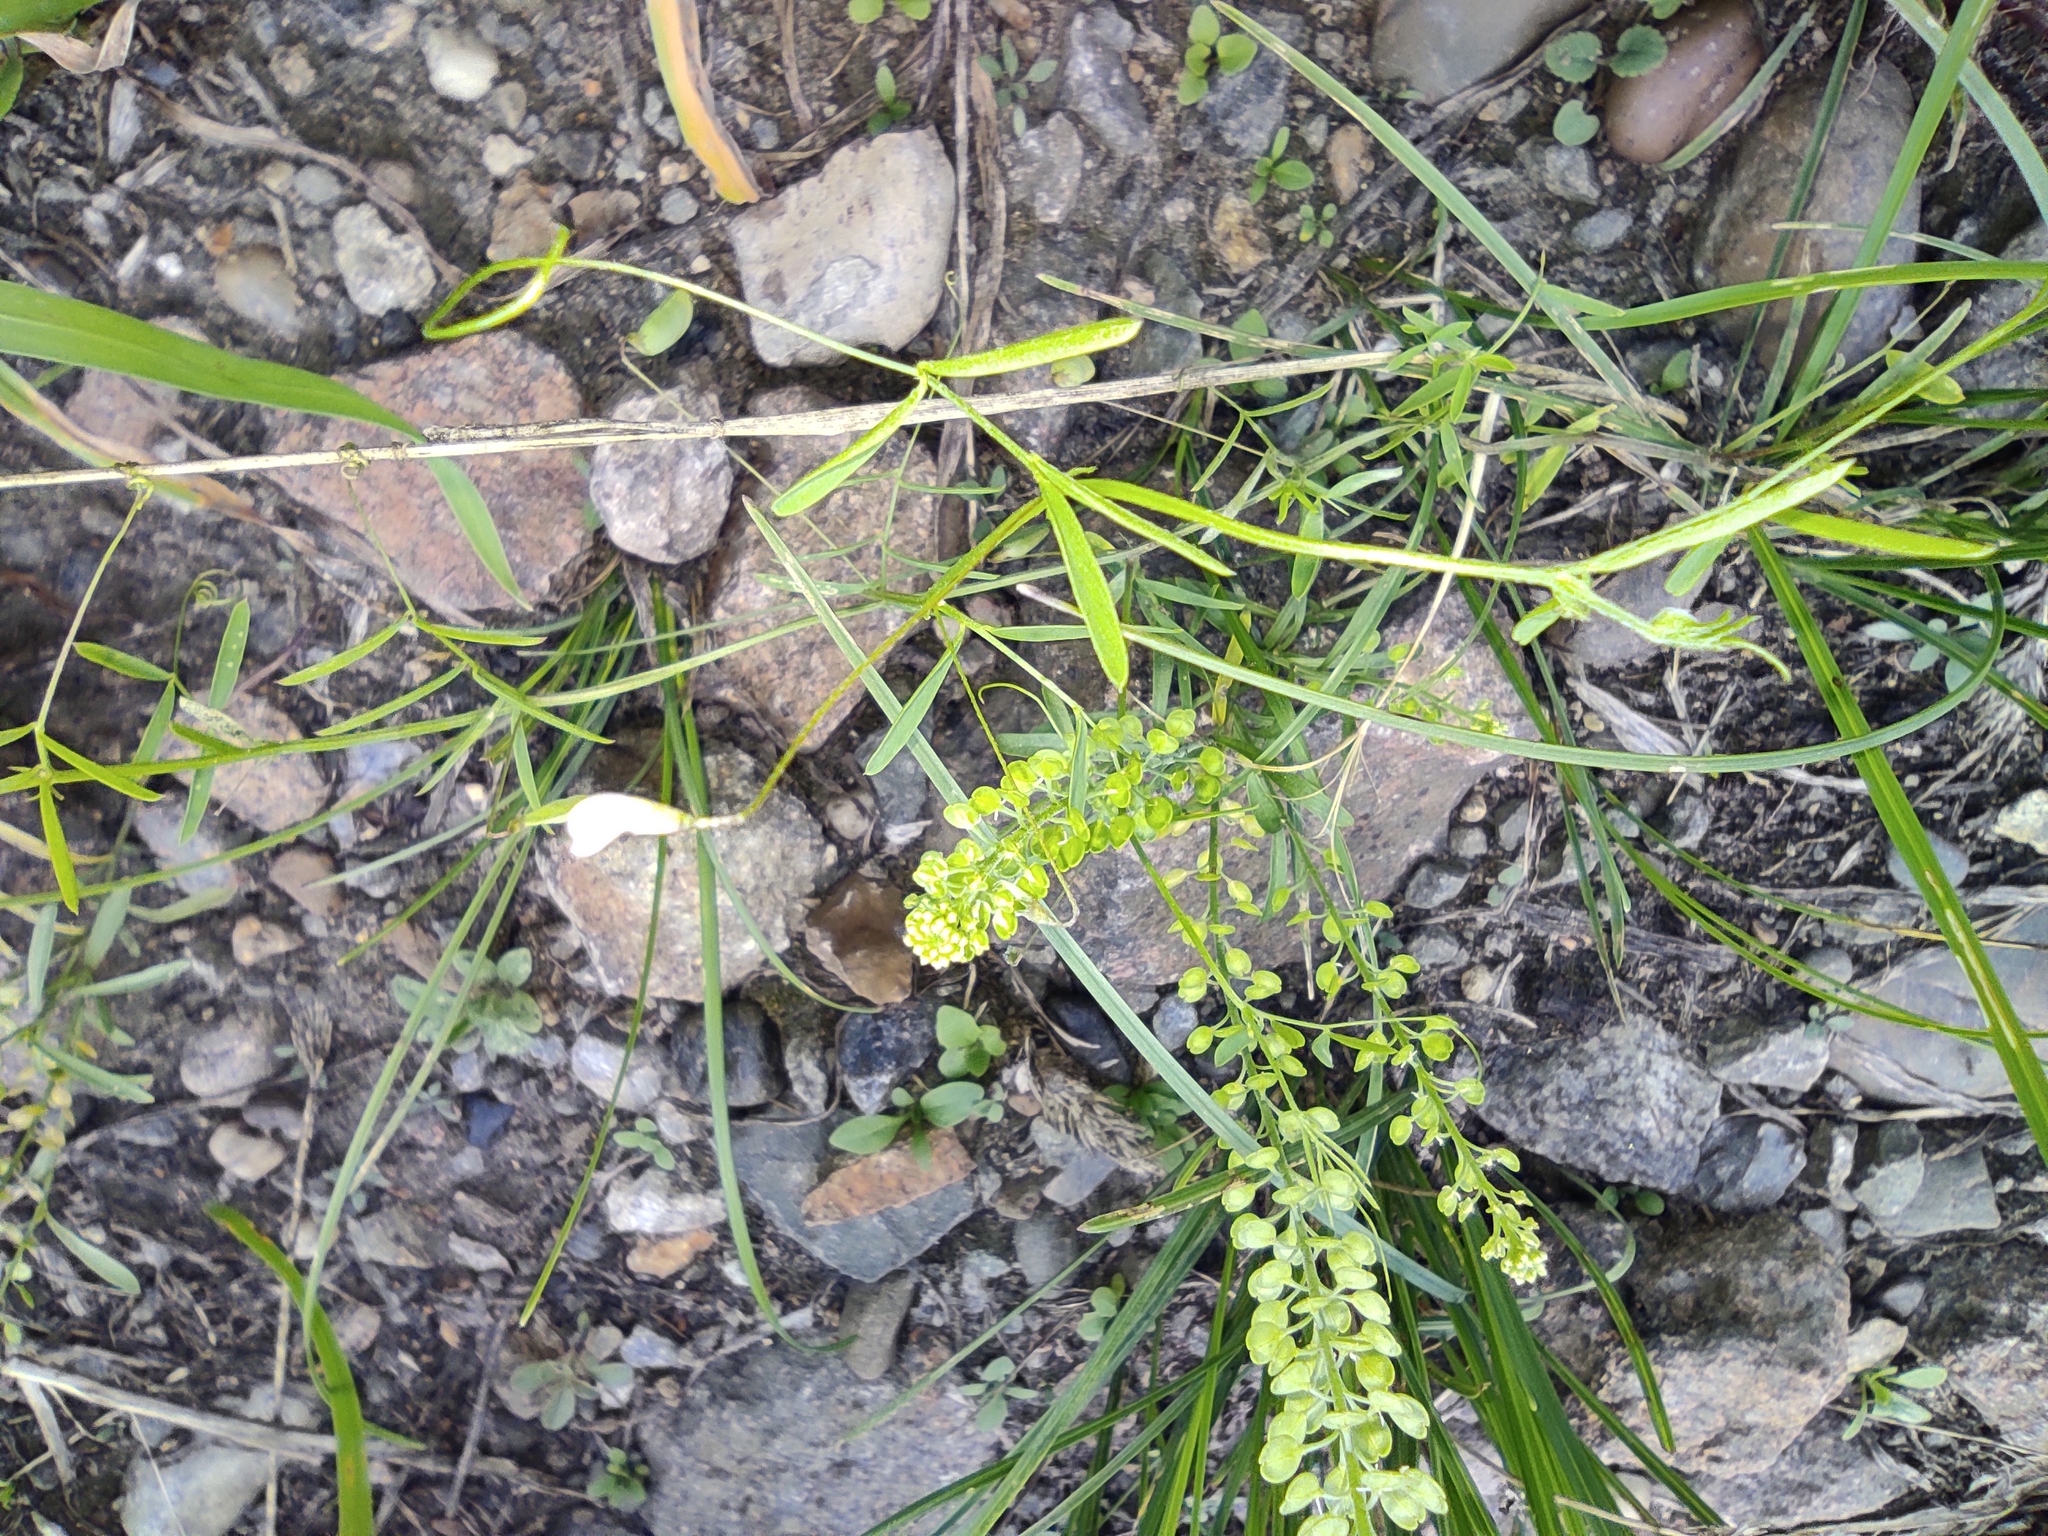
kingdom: Plantae
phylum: Tracheophyta
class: Magnoliopsida
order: Brassicales
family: Brassicaceae
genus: Lepidium
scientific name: Lepidium densiflorum
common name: Miner's pepperwort
